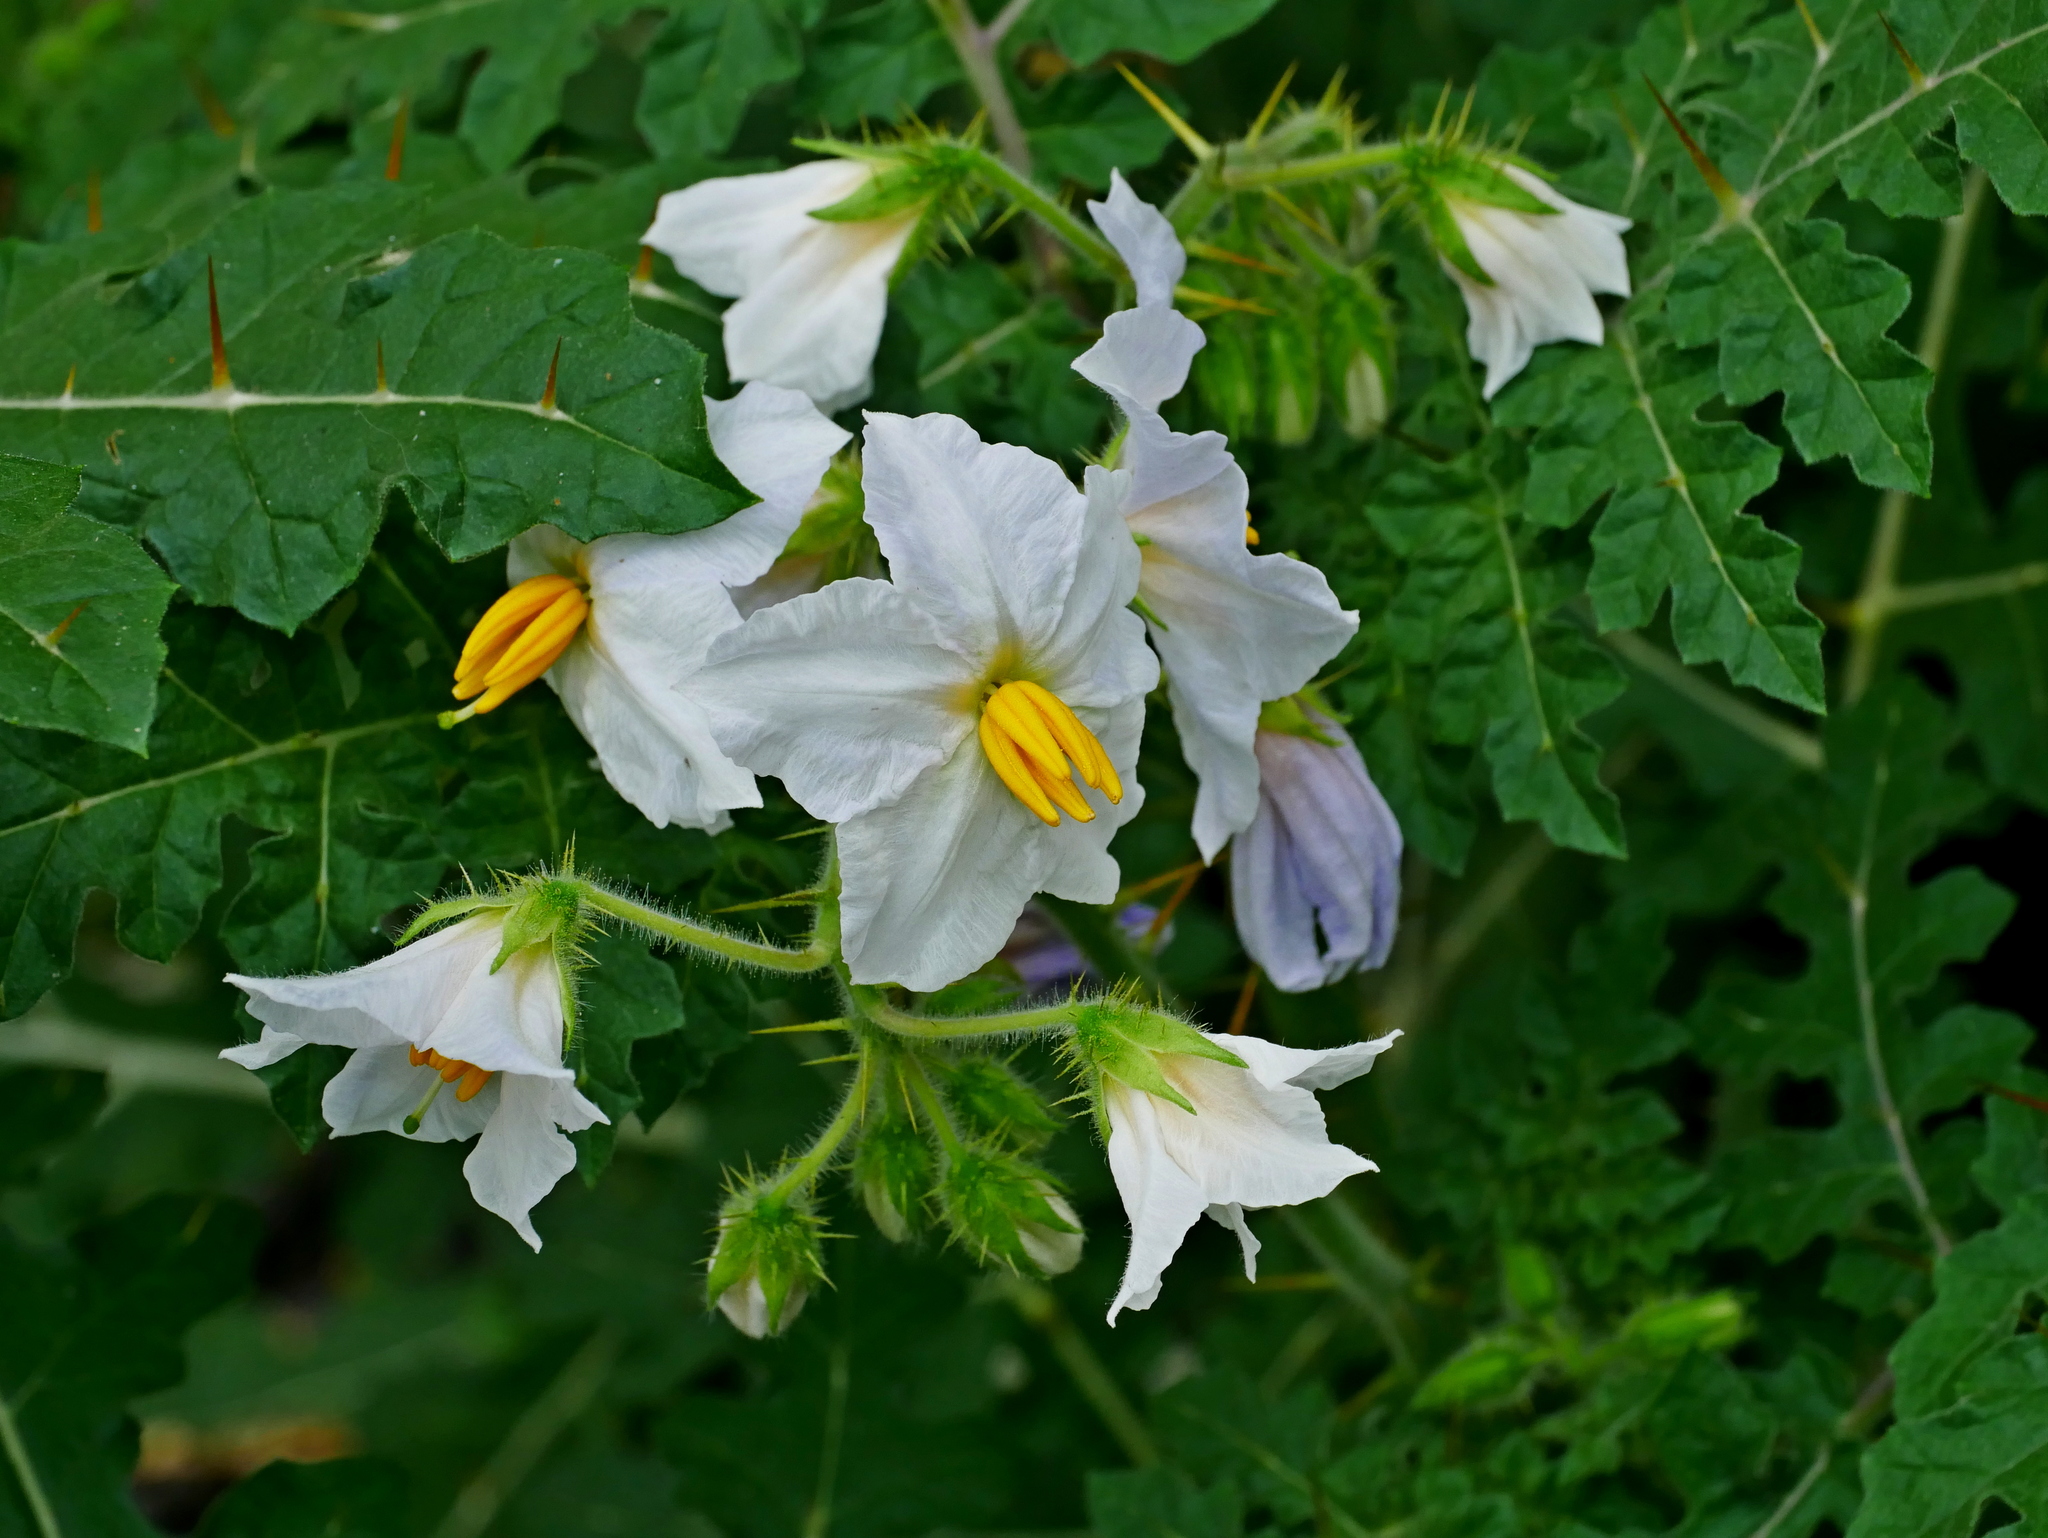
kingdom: Plantae
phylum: Tracheophyta
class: Magnoliopsida
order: Solanales
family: Solanaceae
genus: Solanum
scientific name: Solanum sisymbriifolium
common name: Red buffalo-bur
